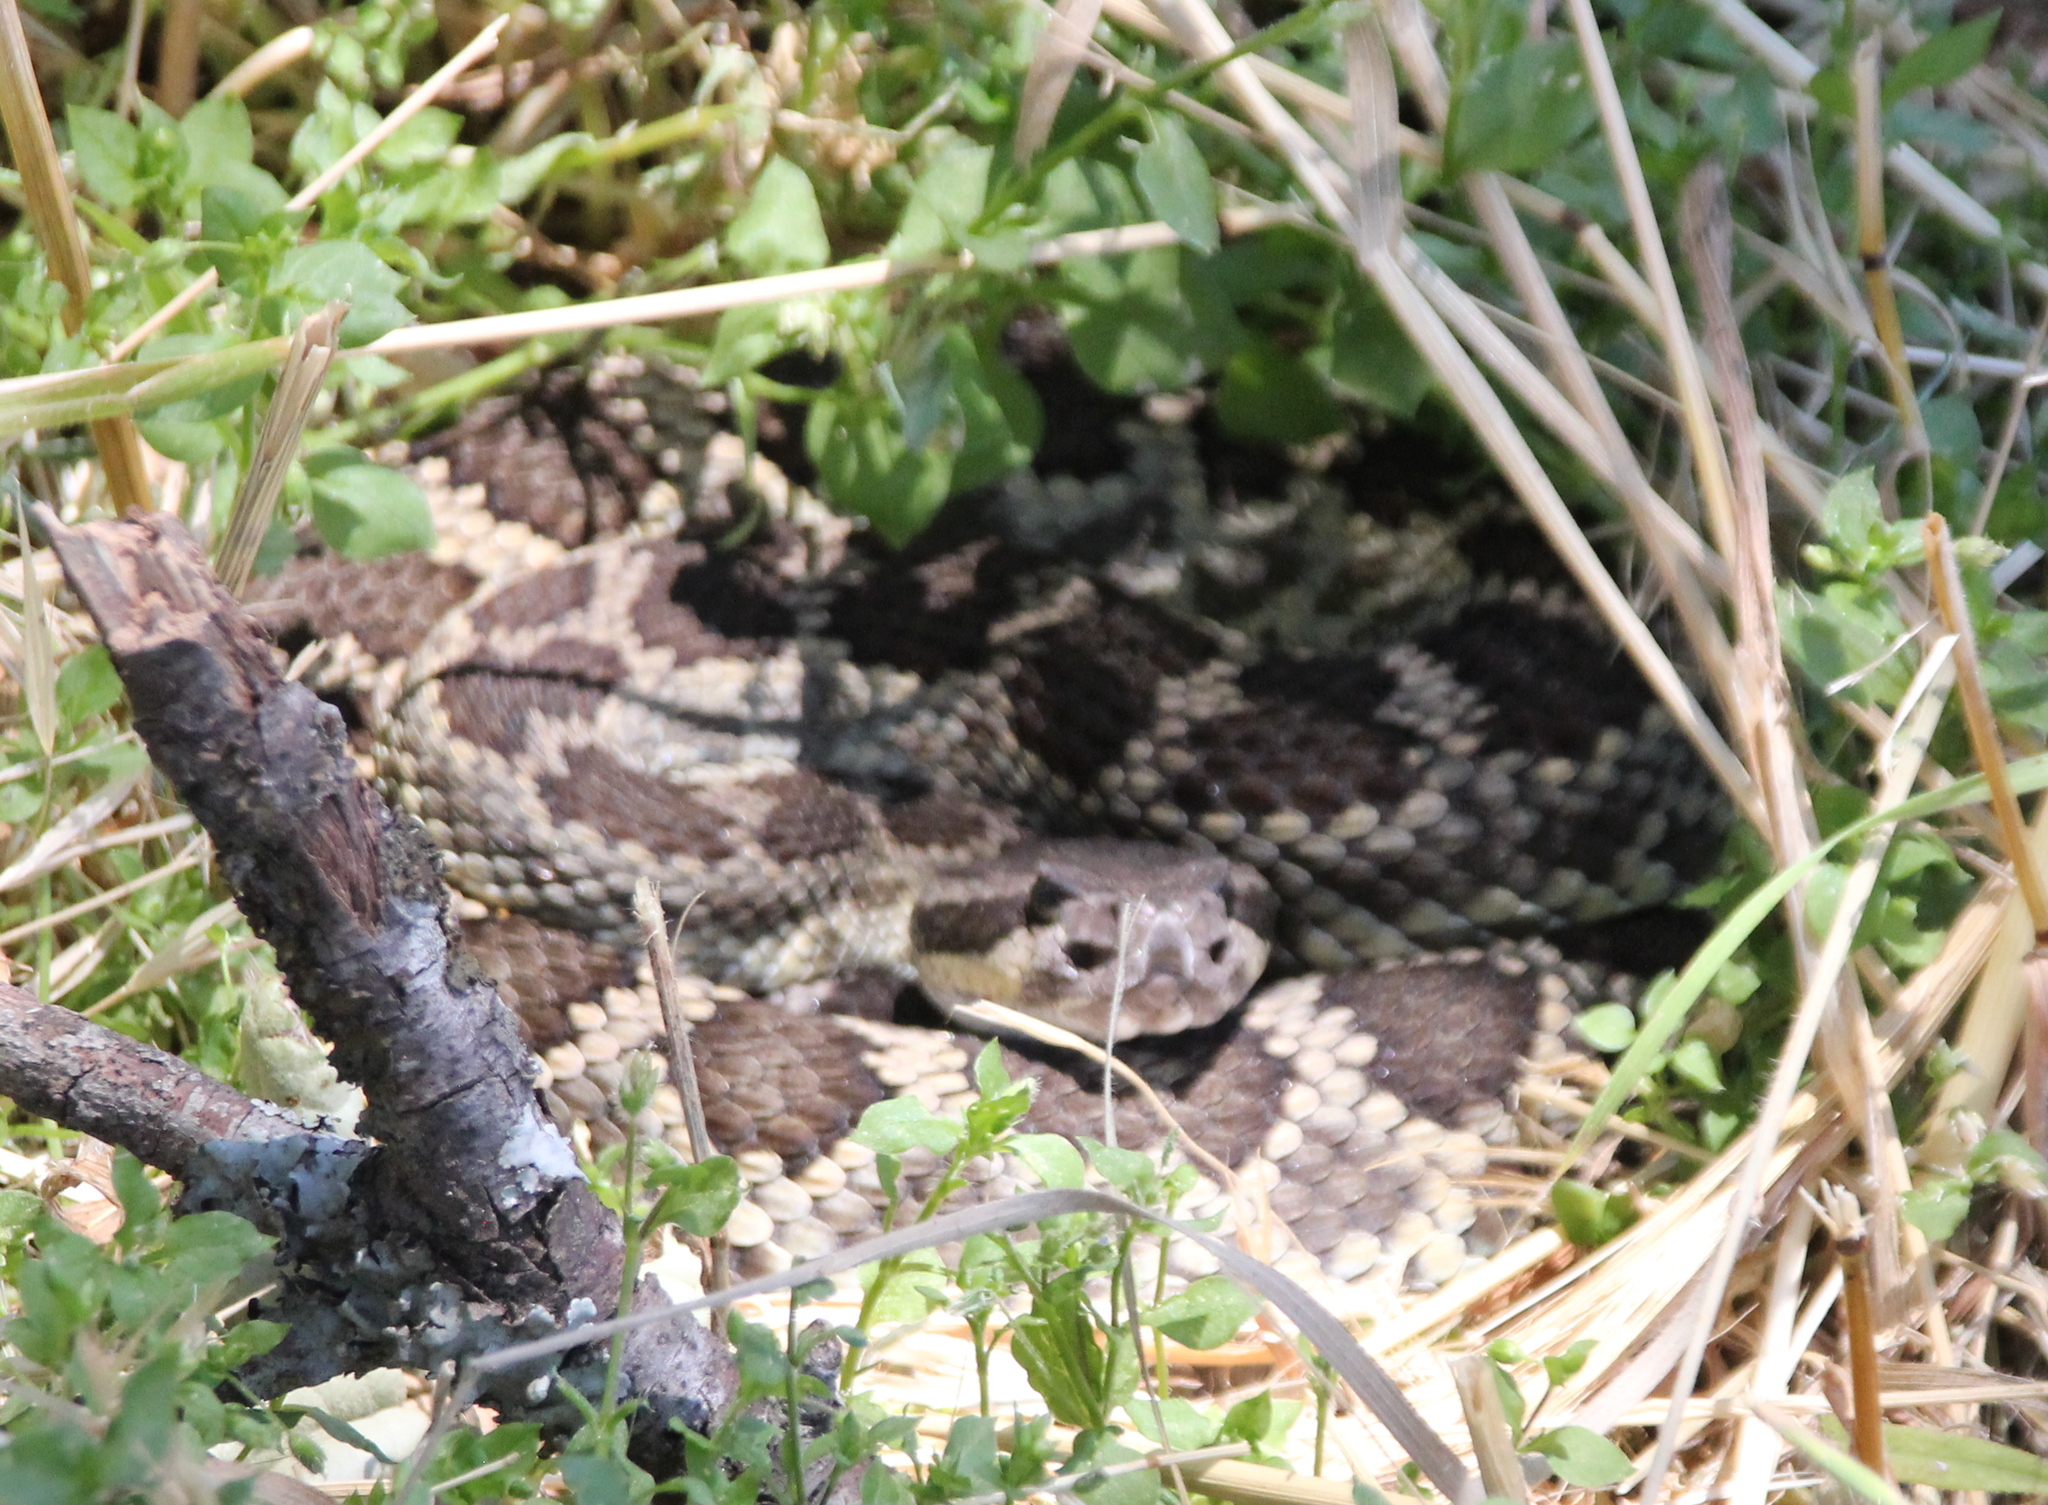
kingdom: Animalia
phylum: Chordata
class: Squamata
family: Viperidae
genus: Crotalus
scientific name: Crotalus oreganus
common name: Abyssus
